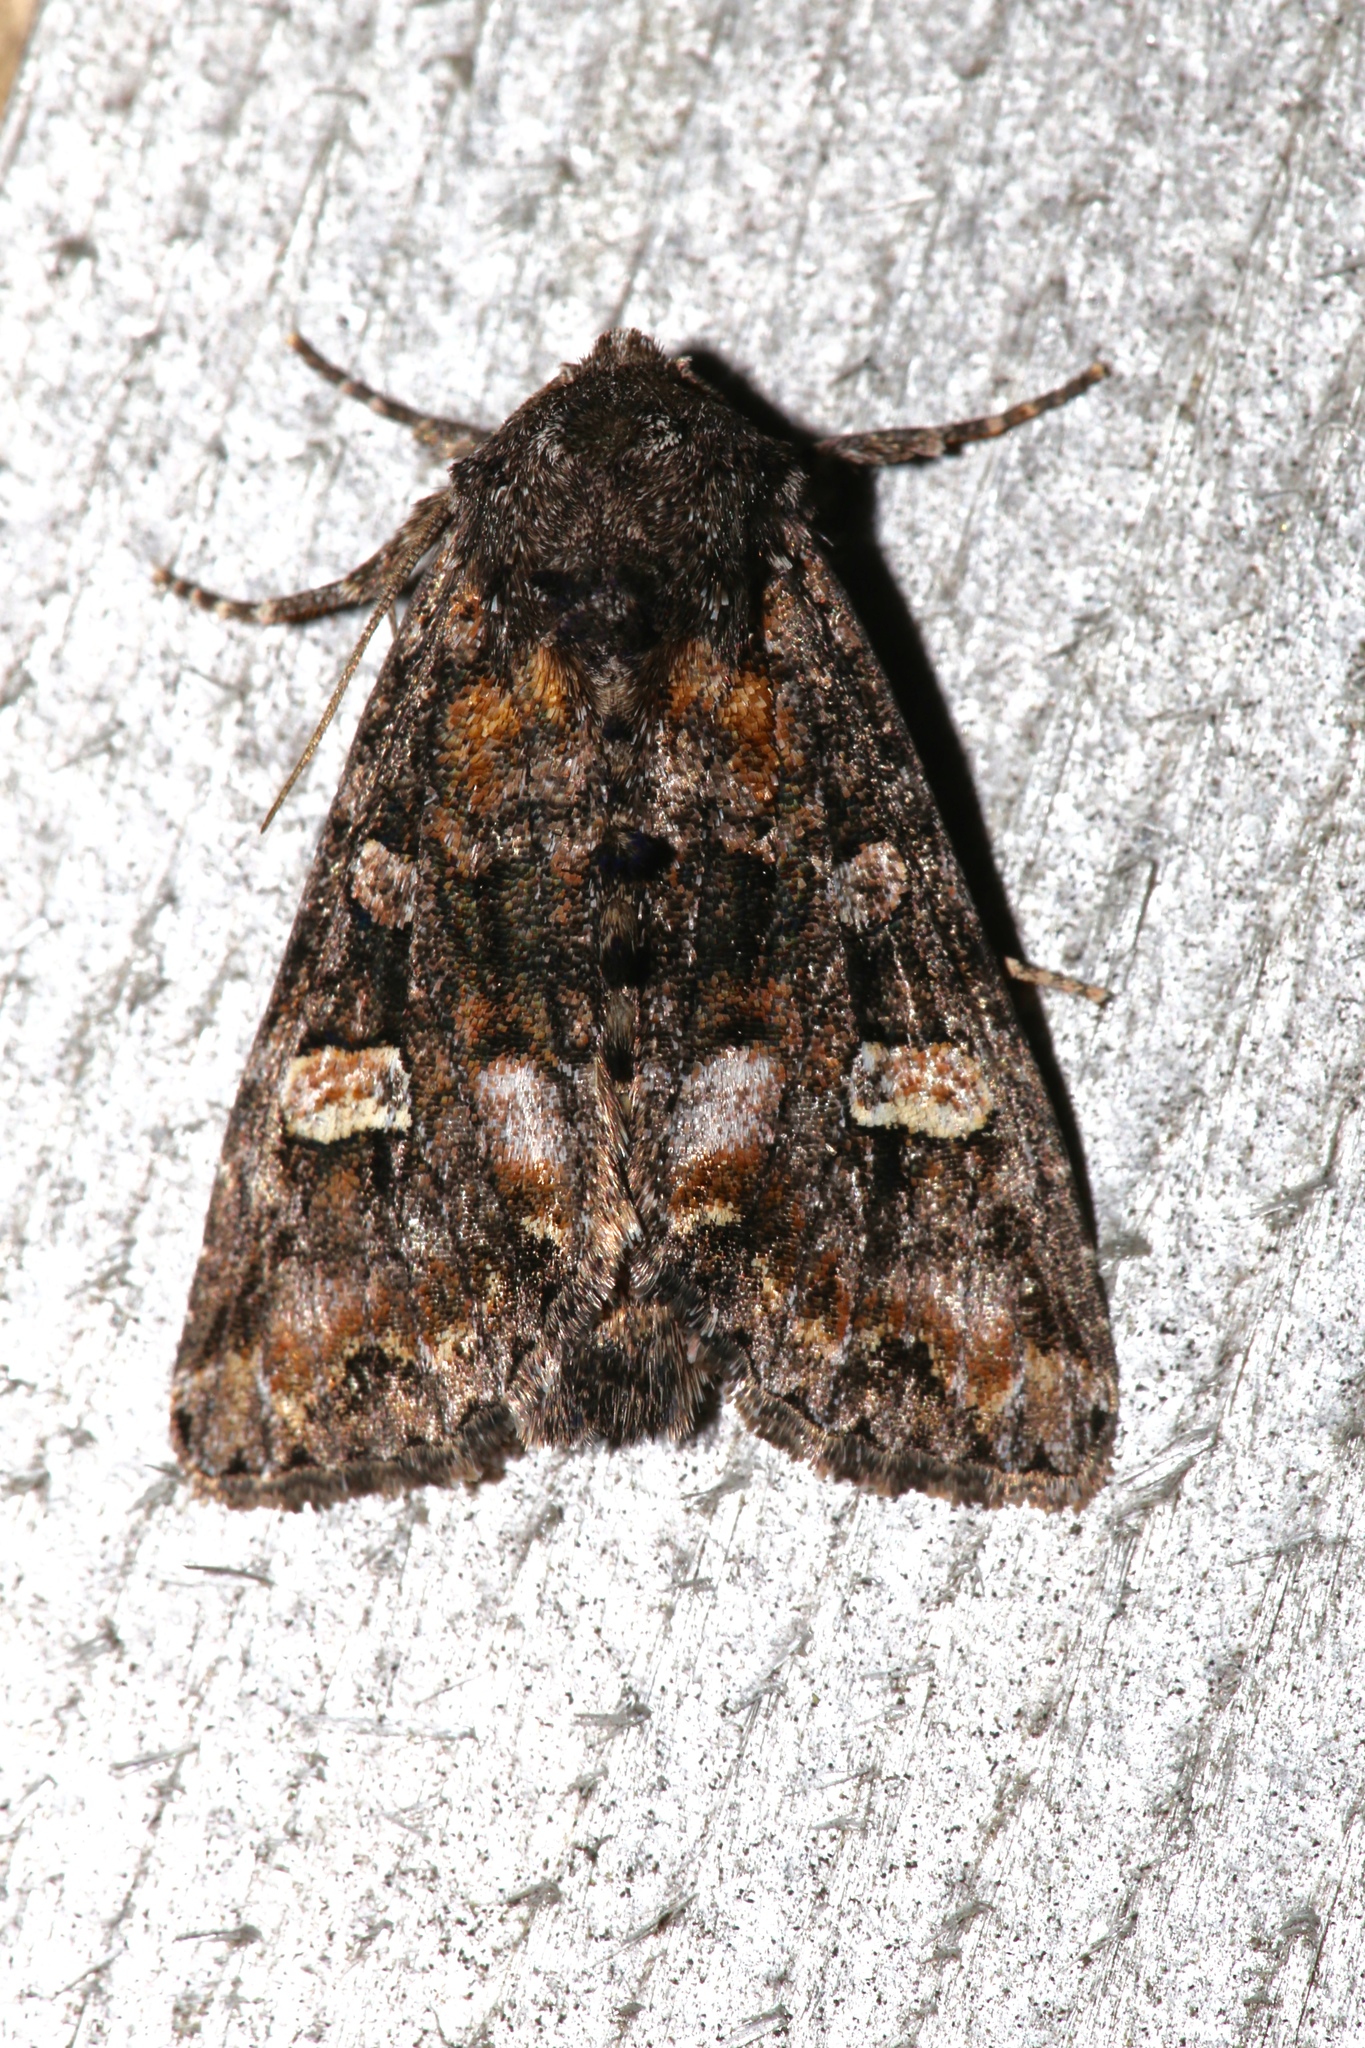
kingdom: Animalia
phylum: Arthropoda
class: Insecta
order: Lepidoptera
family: Noctuidae
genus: Spiramater
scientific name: Spiramater lutra
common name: Otter spiramater moth
